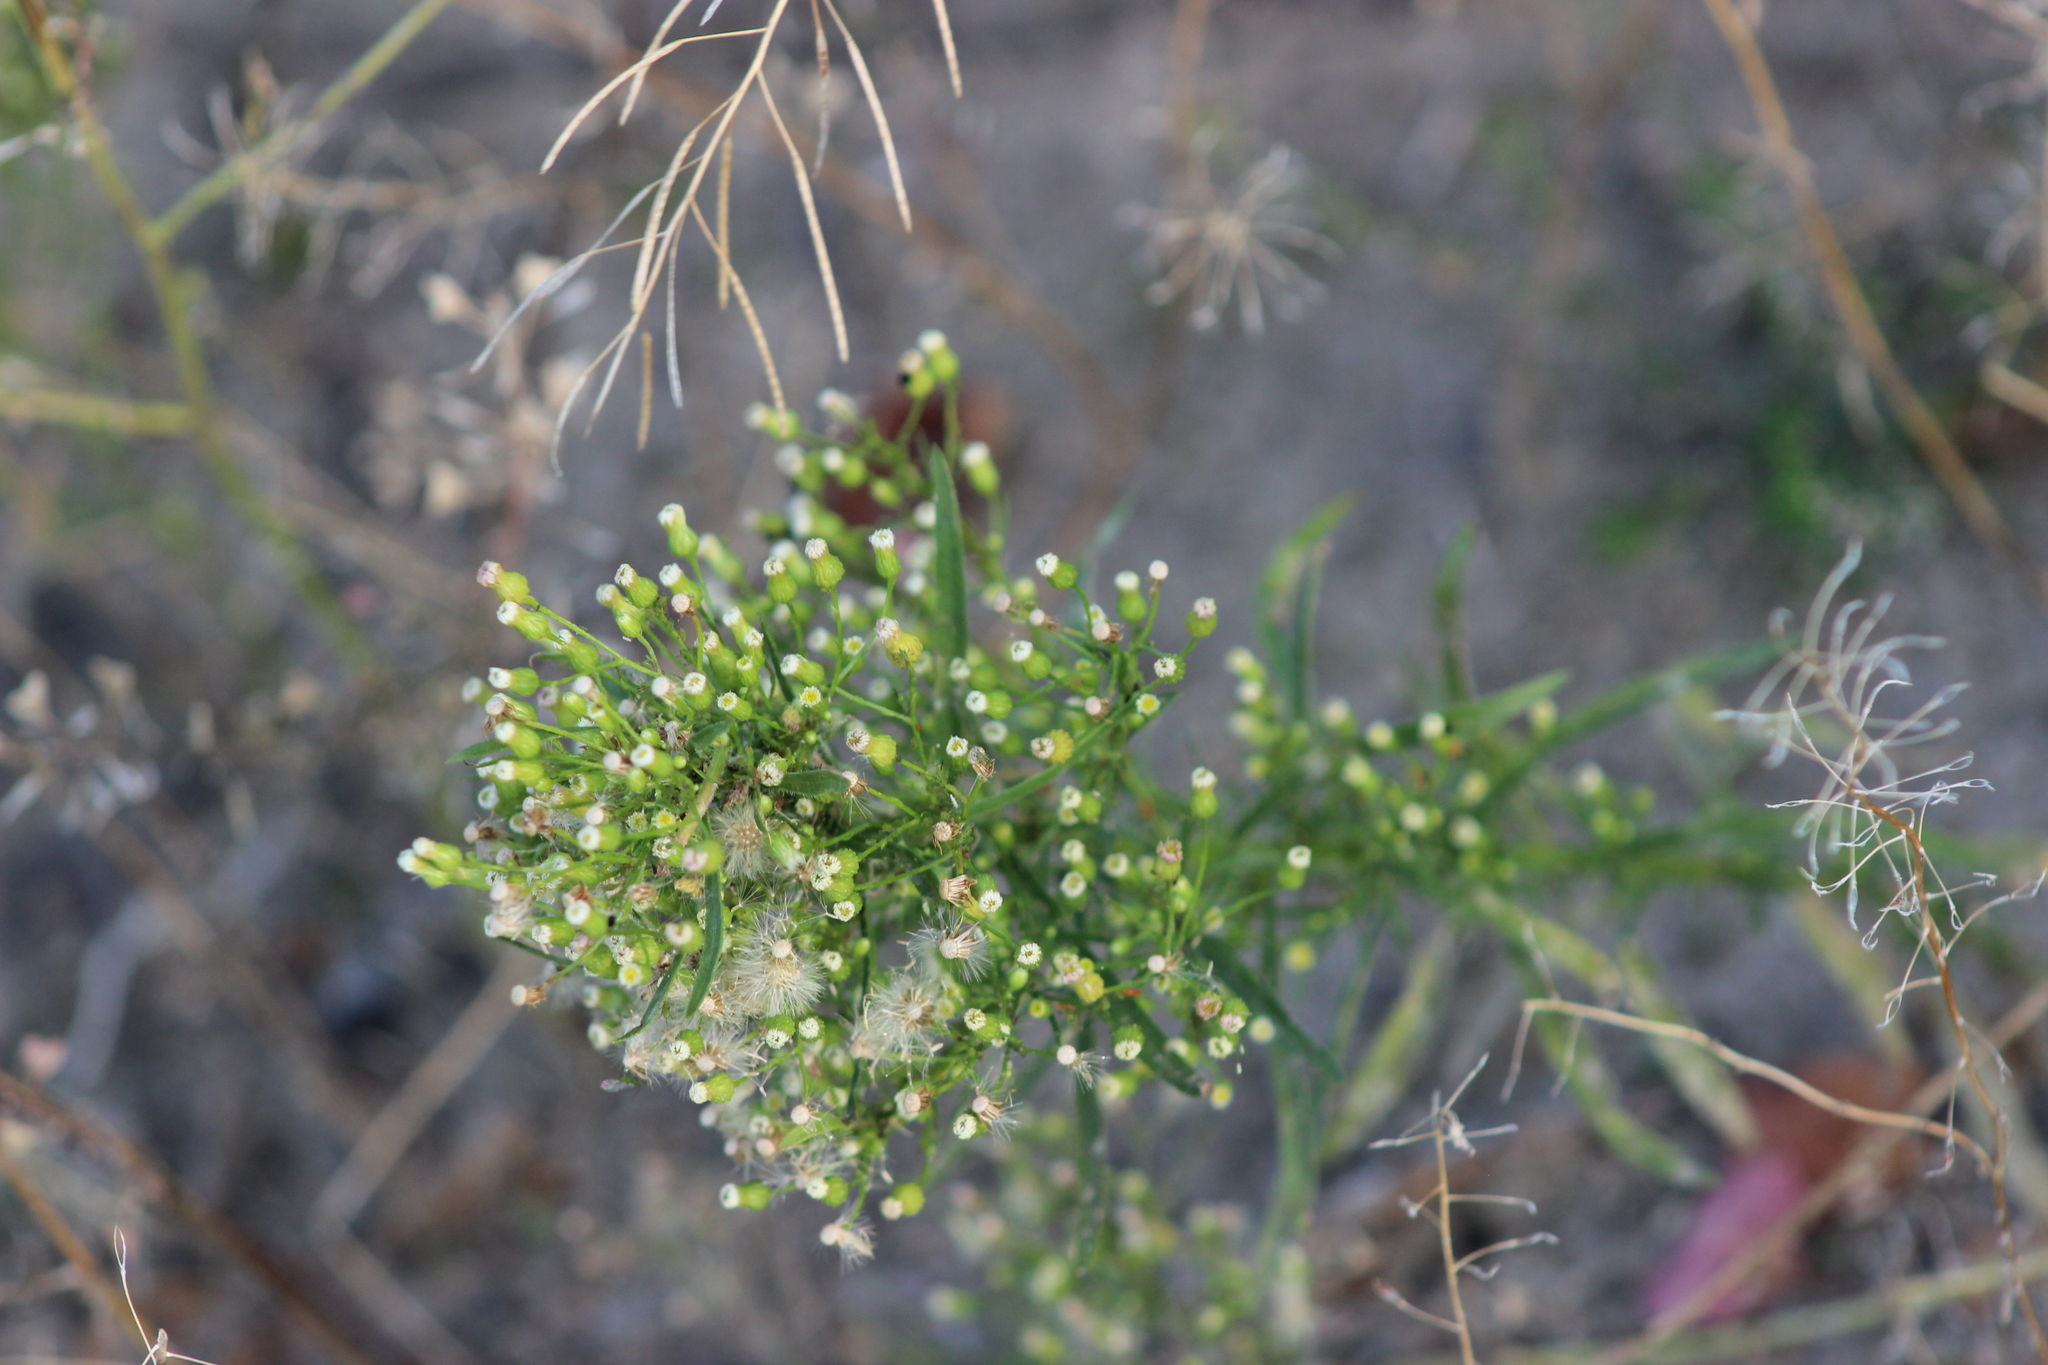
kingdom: Plantae
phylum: Tracheophyta
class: Magnoliopsida
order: Asterales
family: Asteraceae
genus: Erigeron
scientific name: Erigeron canadensis
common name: Canadian fleabane
